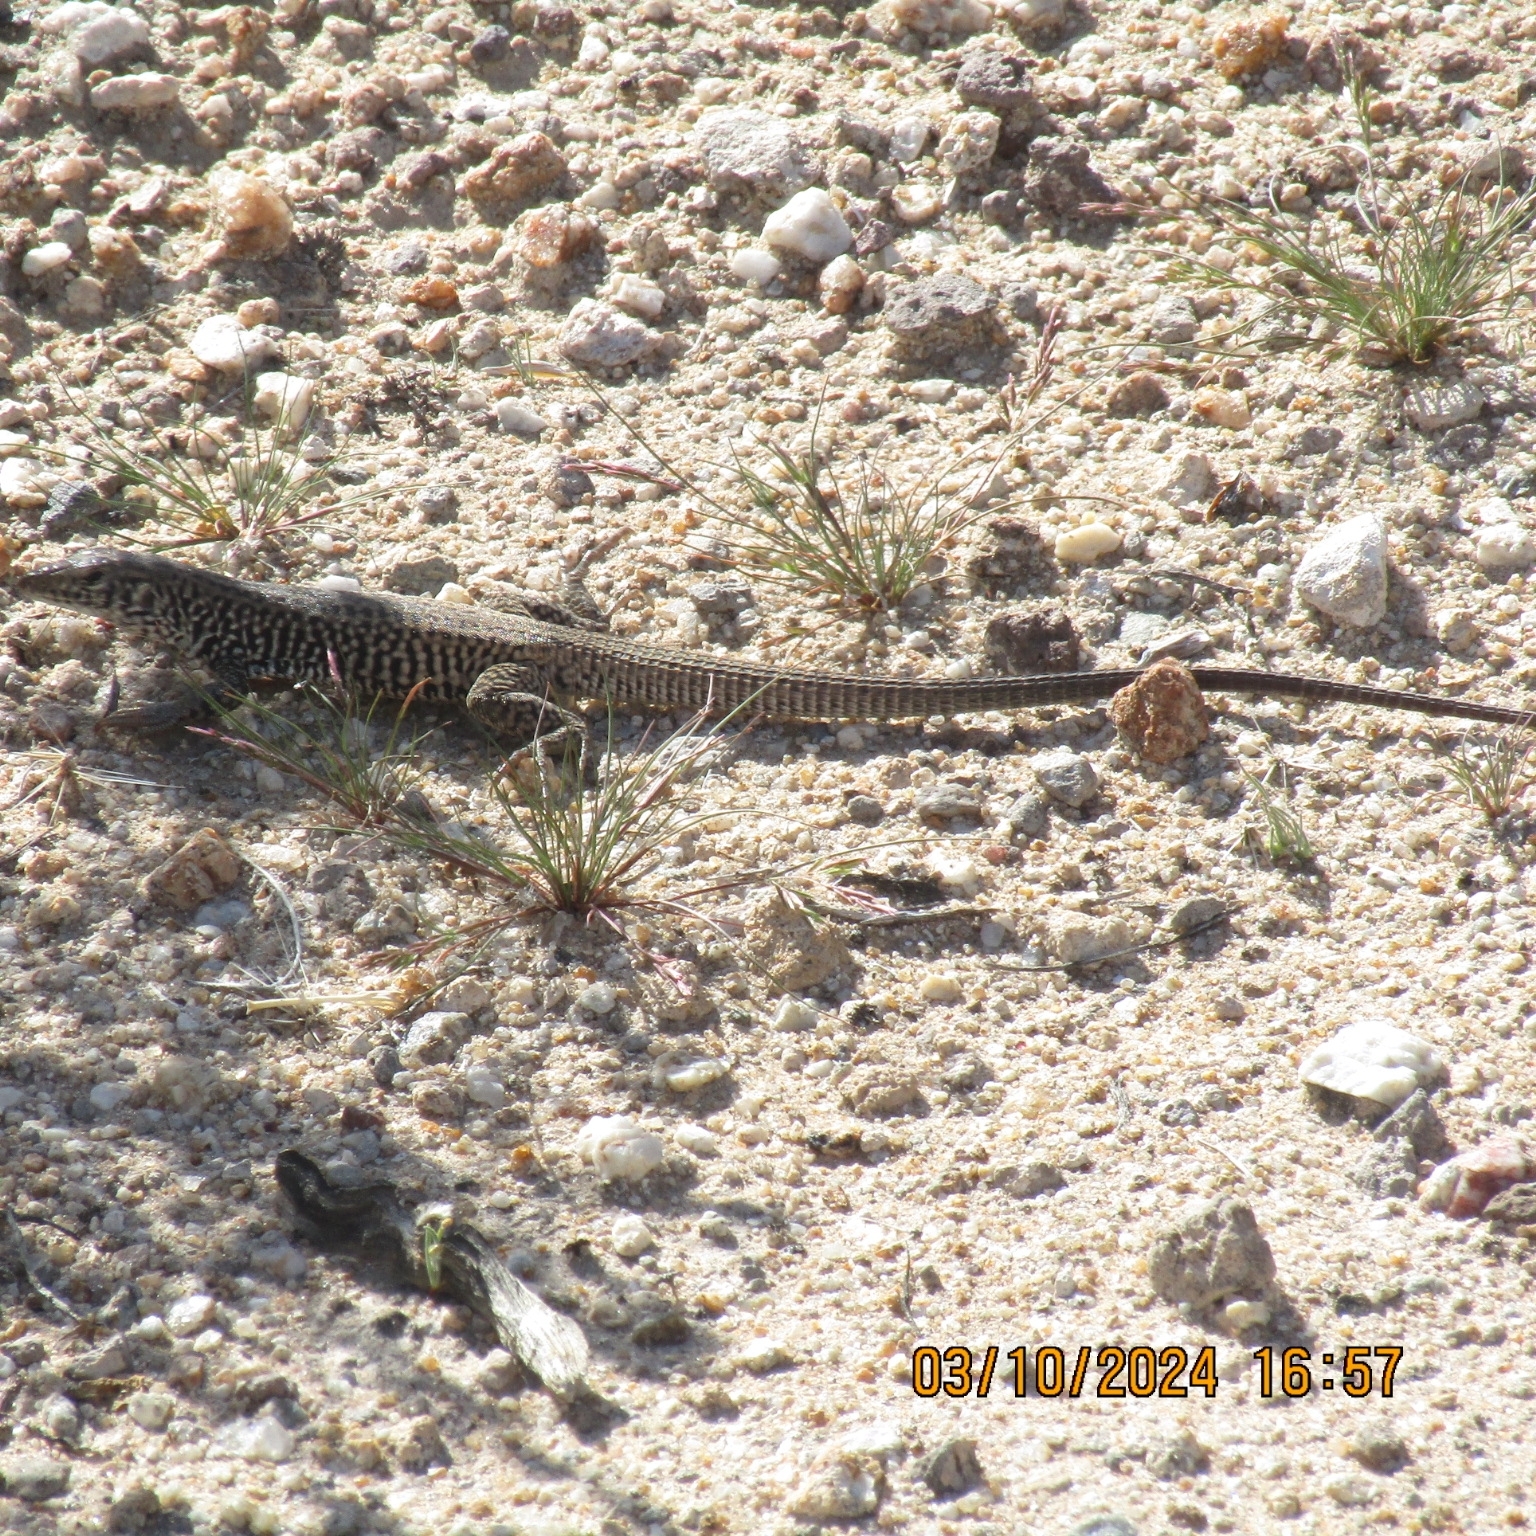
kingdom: Animalia
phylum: Chordata
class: Squamata
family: Teiidae
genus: Aspidoscelis
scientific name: Aspidoscelis tigris
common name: Tiger whiptail
